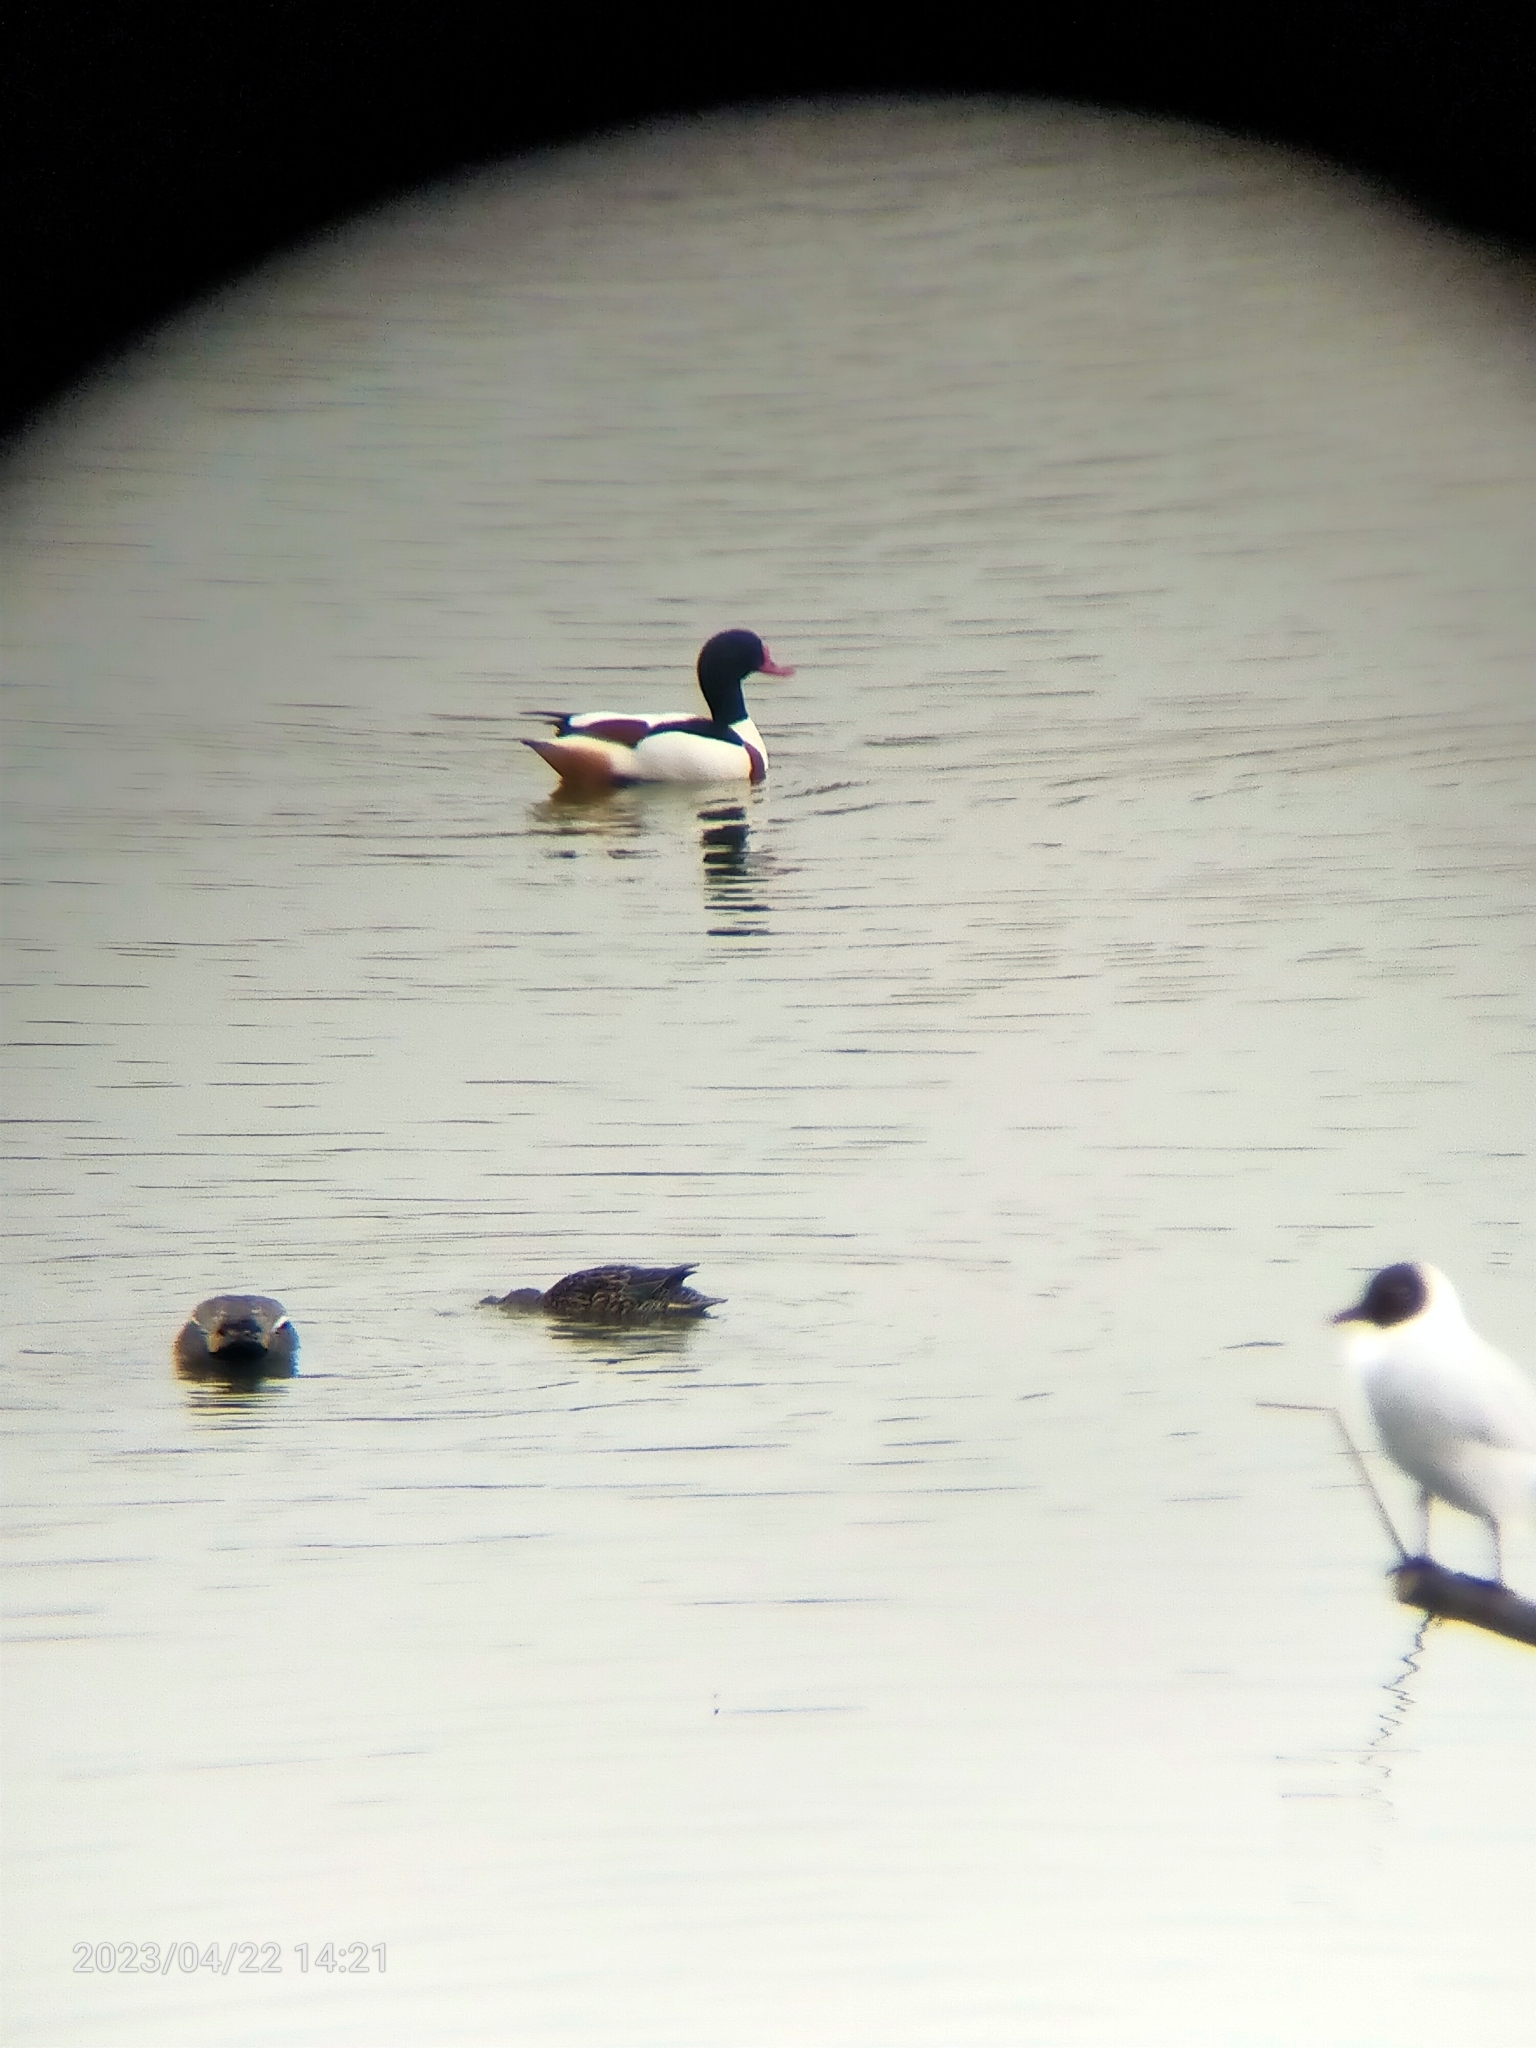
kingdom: Animalia
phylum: Chordata
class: Aves
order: Anseriformes
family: Anatidae
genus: Tadorna
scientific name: Tadorna tadorna
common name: Common shelduck
